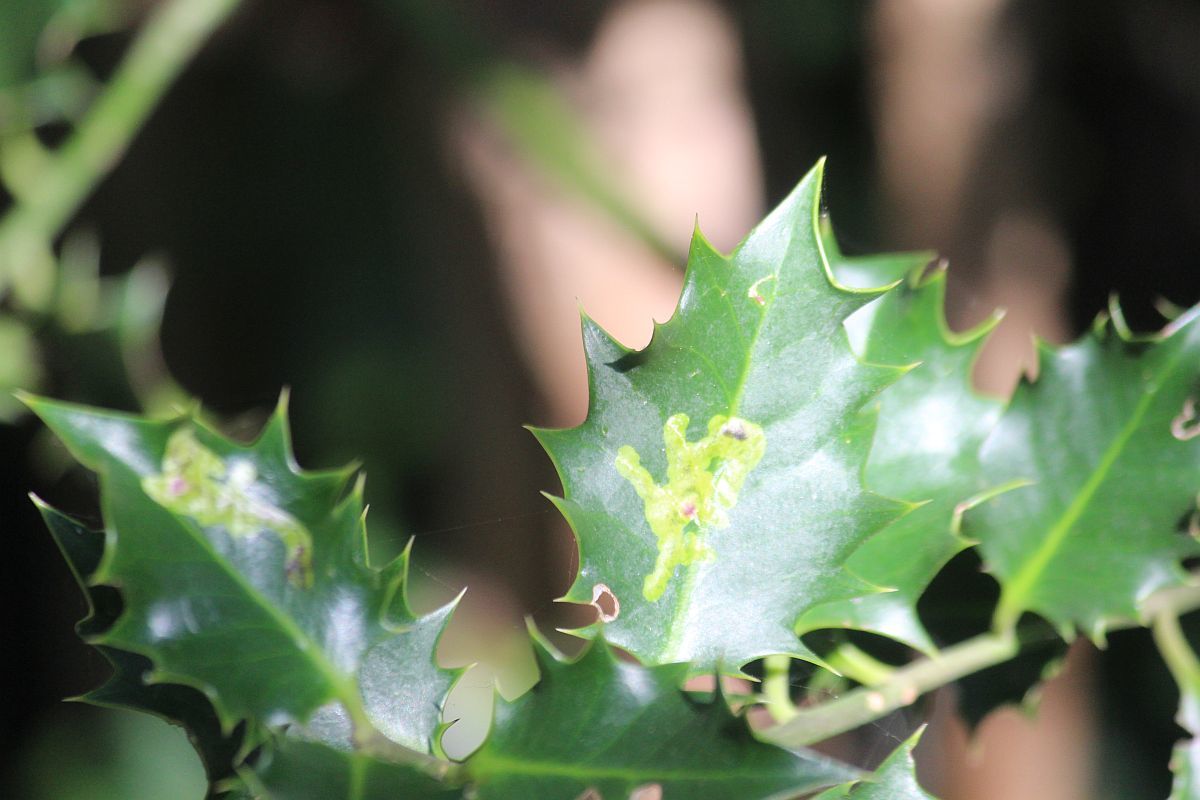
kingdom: Animalia
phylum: Arthropoda
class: Insecta
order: Diptera
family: Agromyzidae
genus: Phytomyza
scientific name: Phytomyza ilicis
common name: Holly leafminer
